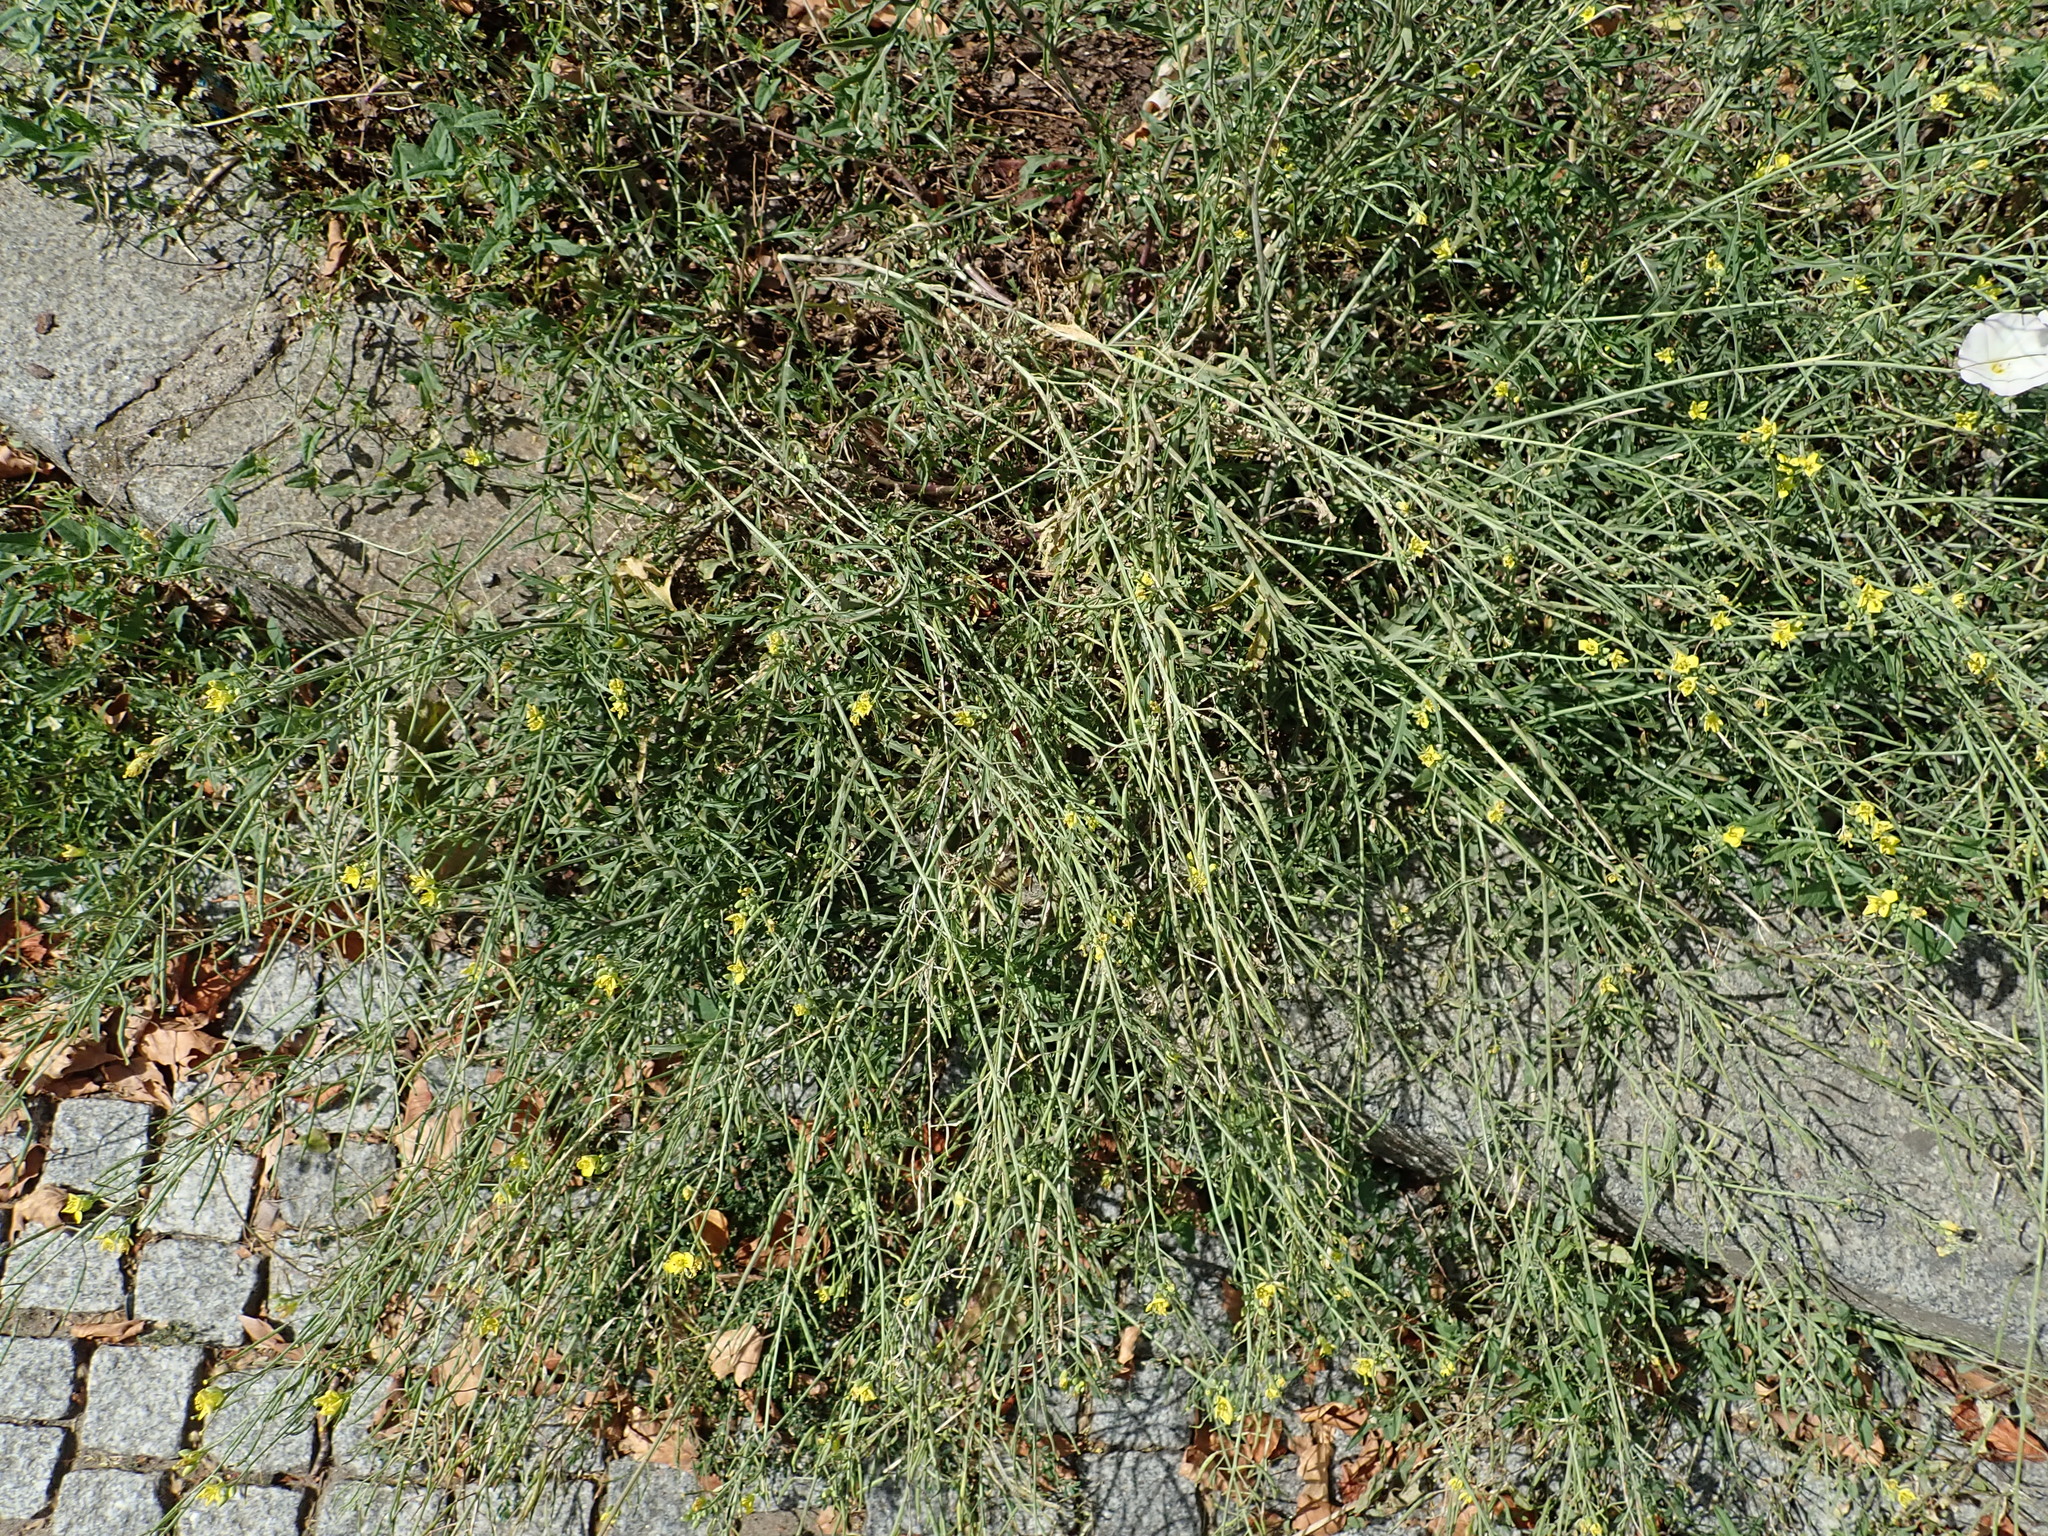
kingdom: Plantae
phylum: Tracheophyta
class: Magnoliopsida
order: Brassicales
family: Brassicaceae
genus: Diplotaxis
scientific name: Diplotaxis tenuifolia
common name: Perennial wall-rocket
